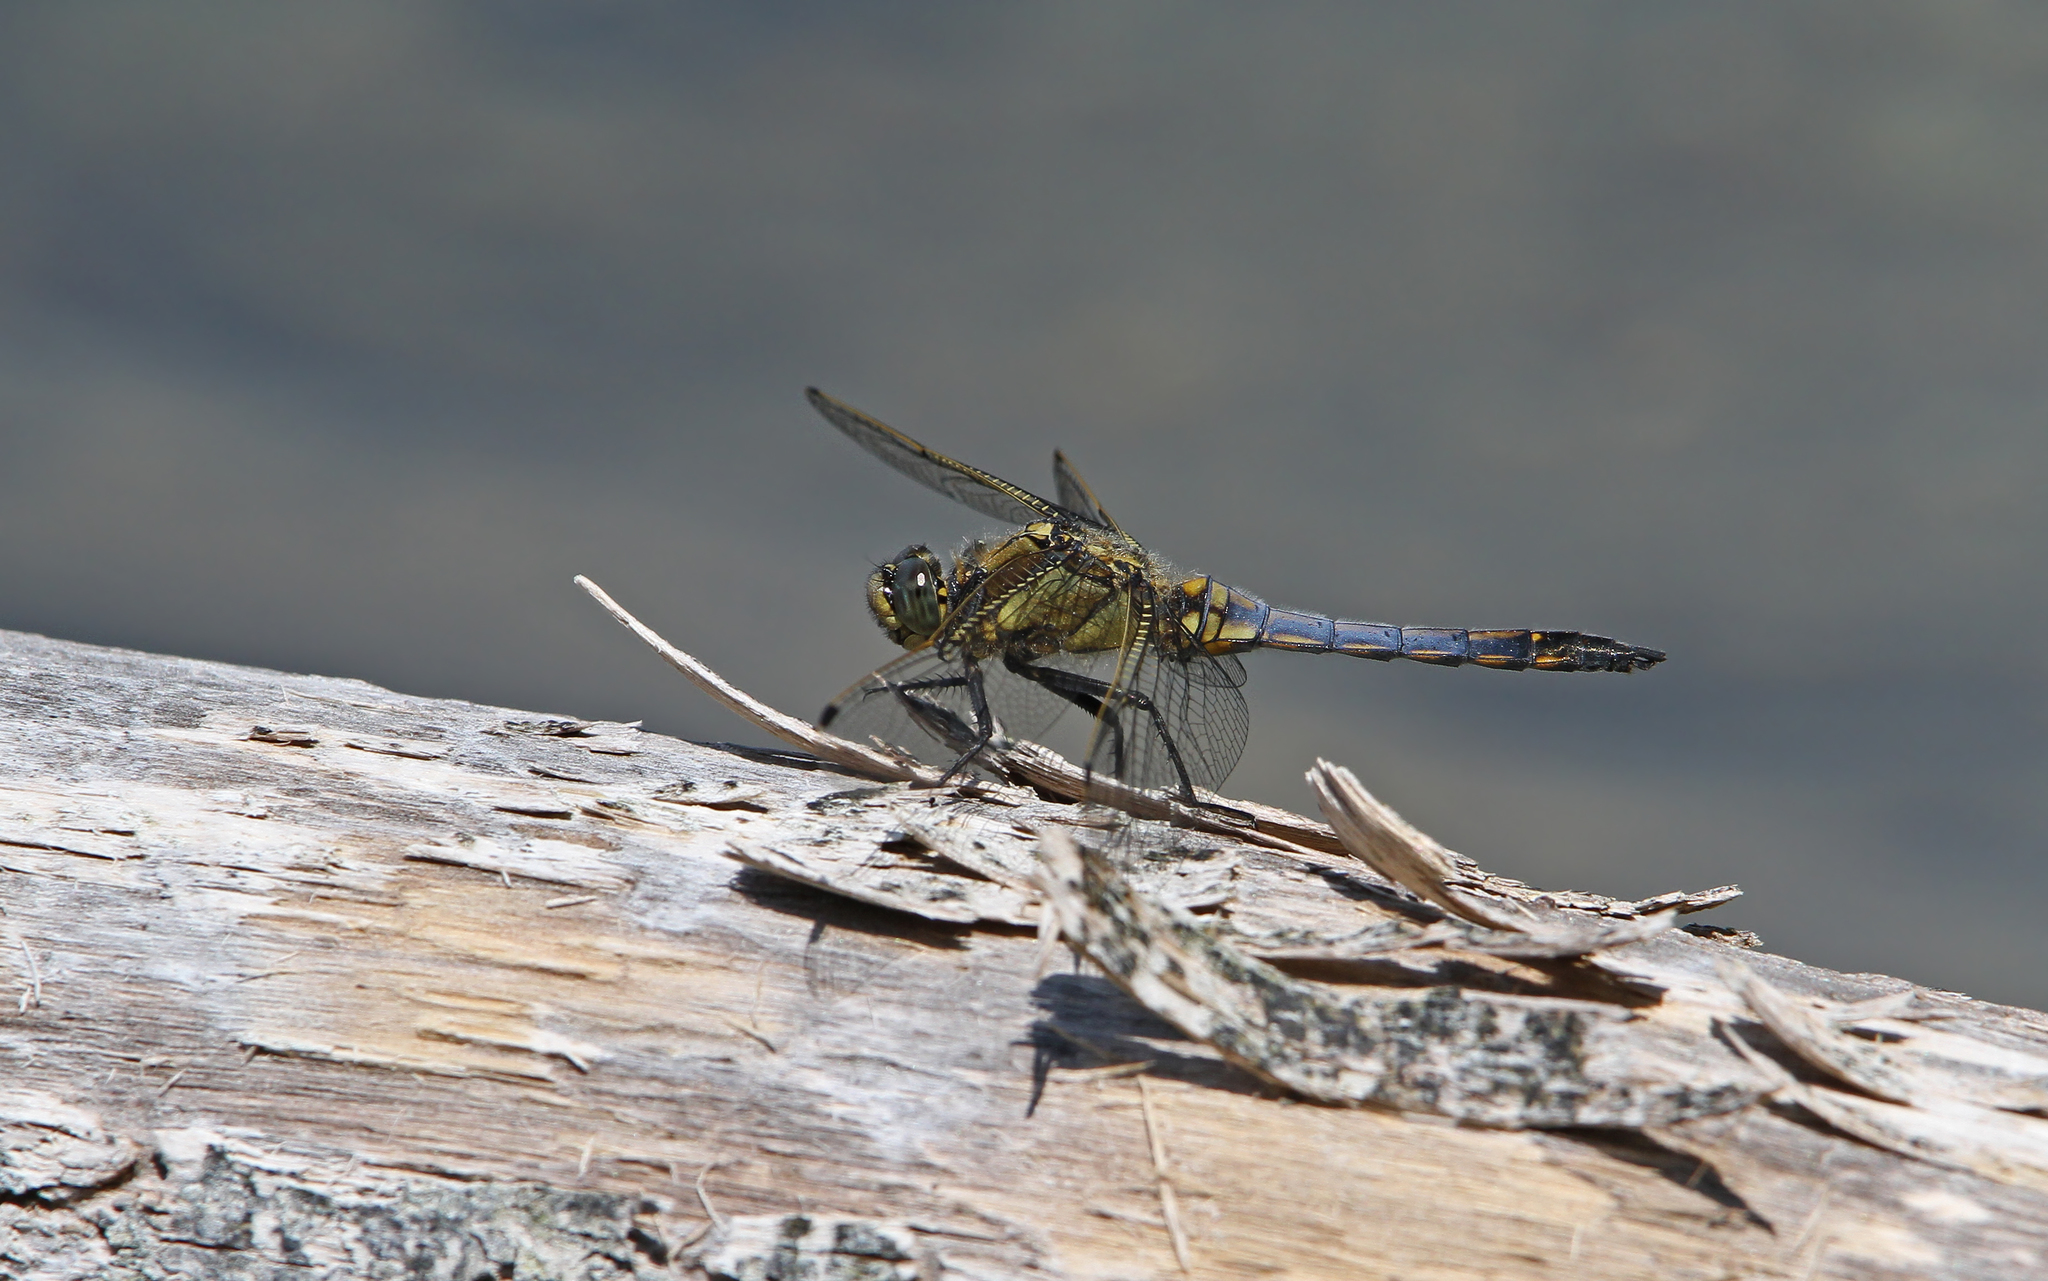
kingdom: Animalia
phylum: Arthropoda
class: Insecta
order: Odonata
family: Libellulidae
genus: Orthetrum
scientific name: Orthetrum cancellatum
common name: Black-tailed skimmer
